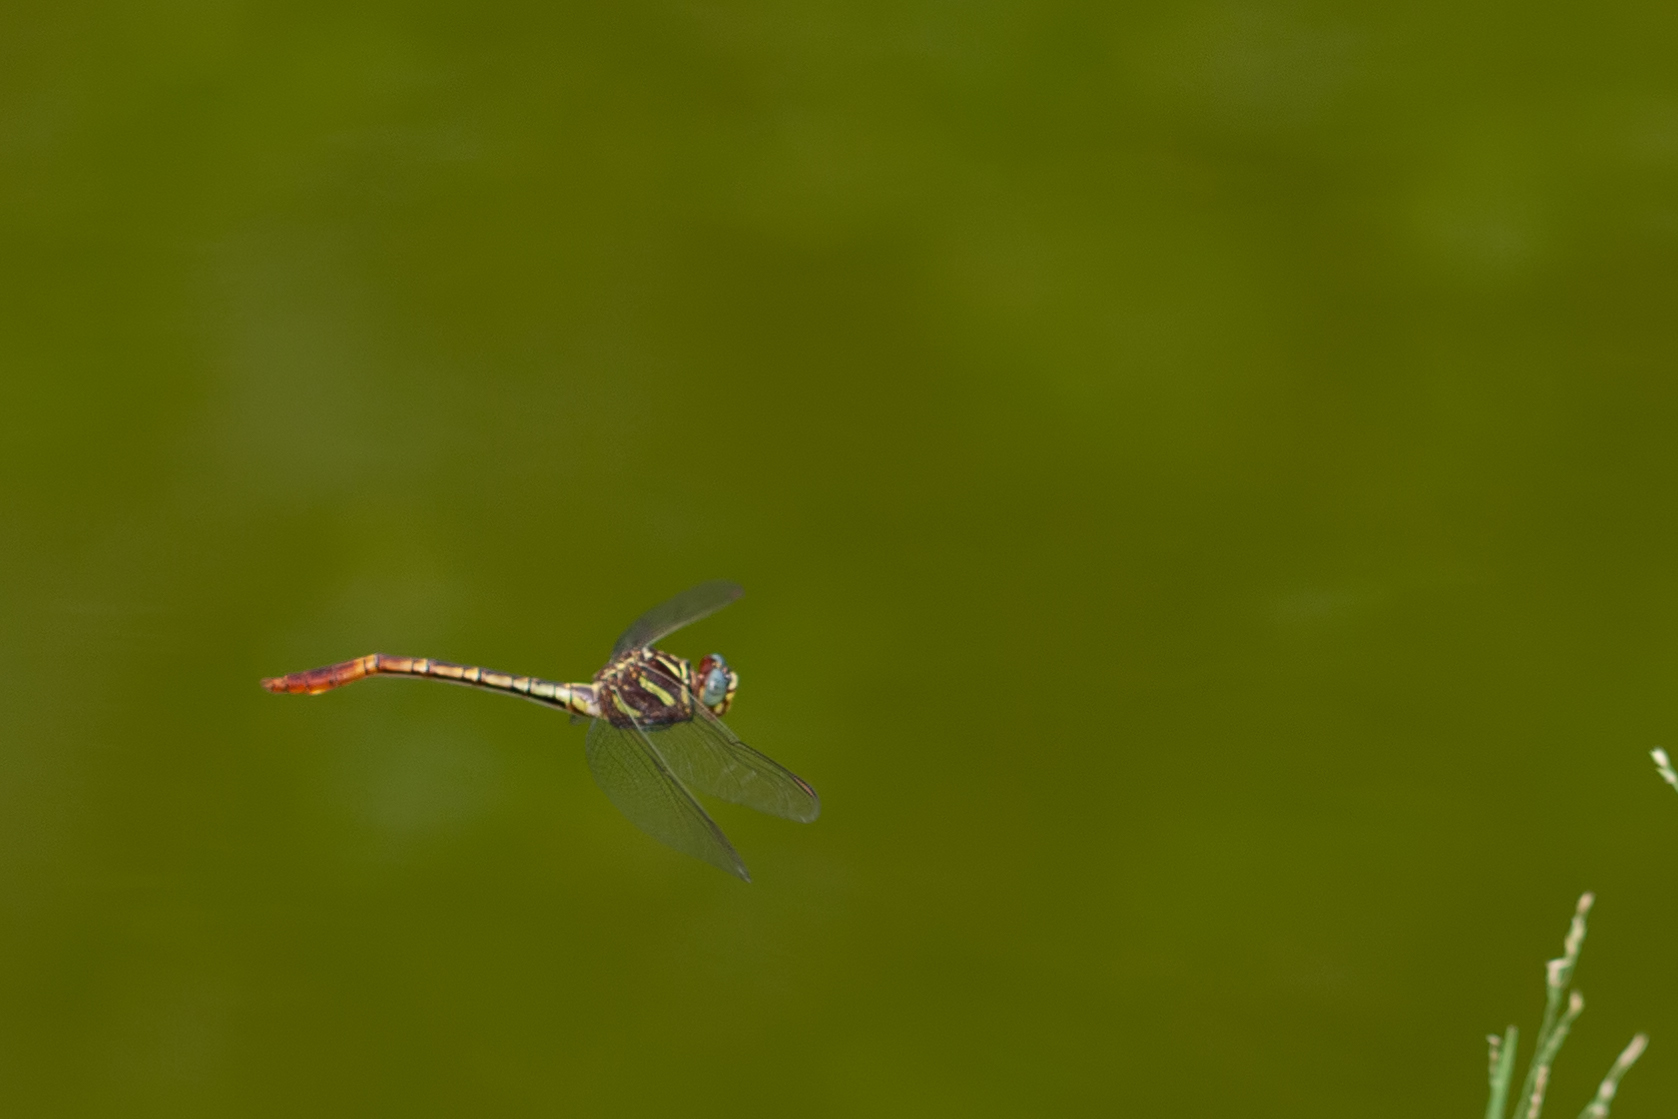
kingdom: Animalia
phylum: Arthropoda
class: Insecta
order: Odonata
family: Gomphidae
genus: Aphylla
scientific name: Aphylla williamsoni
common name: Two-striped forceptail
